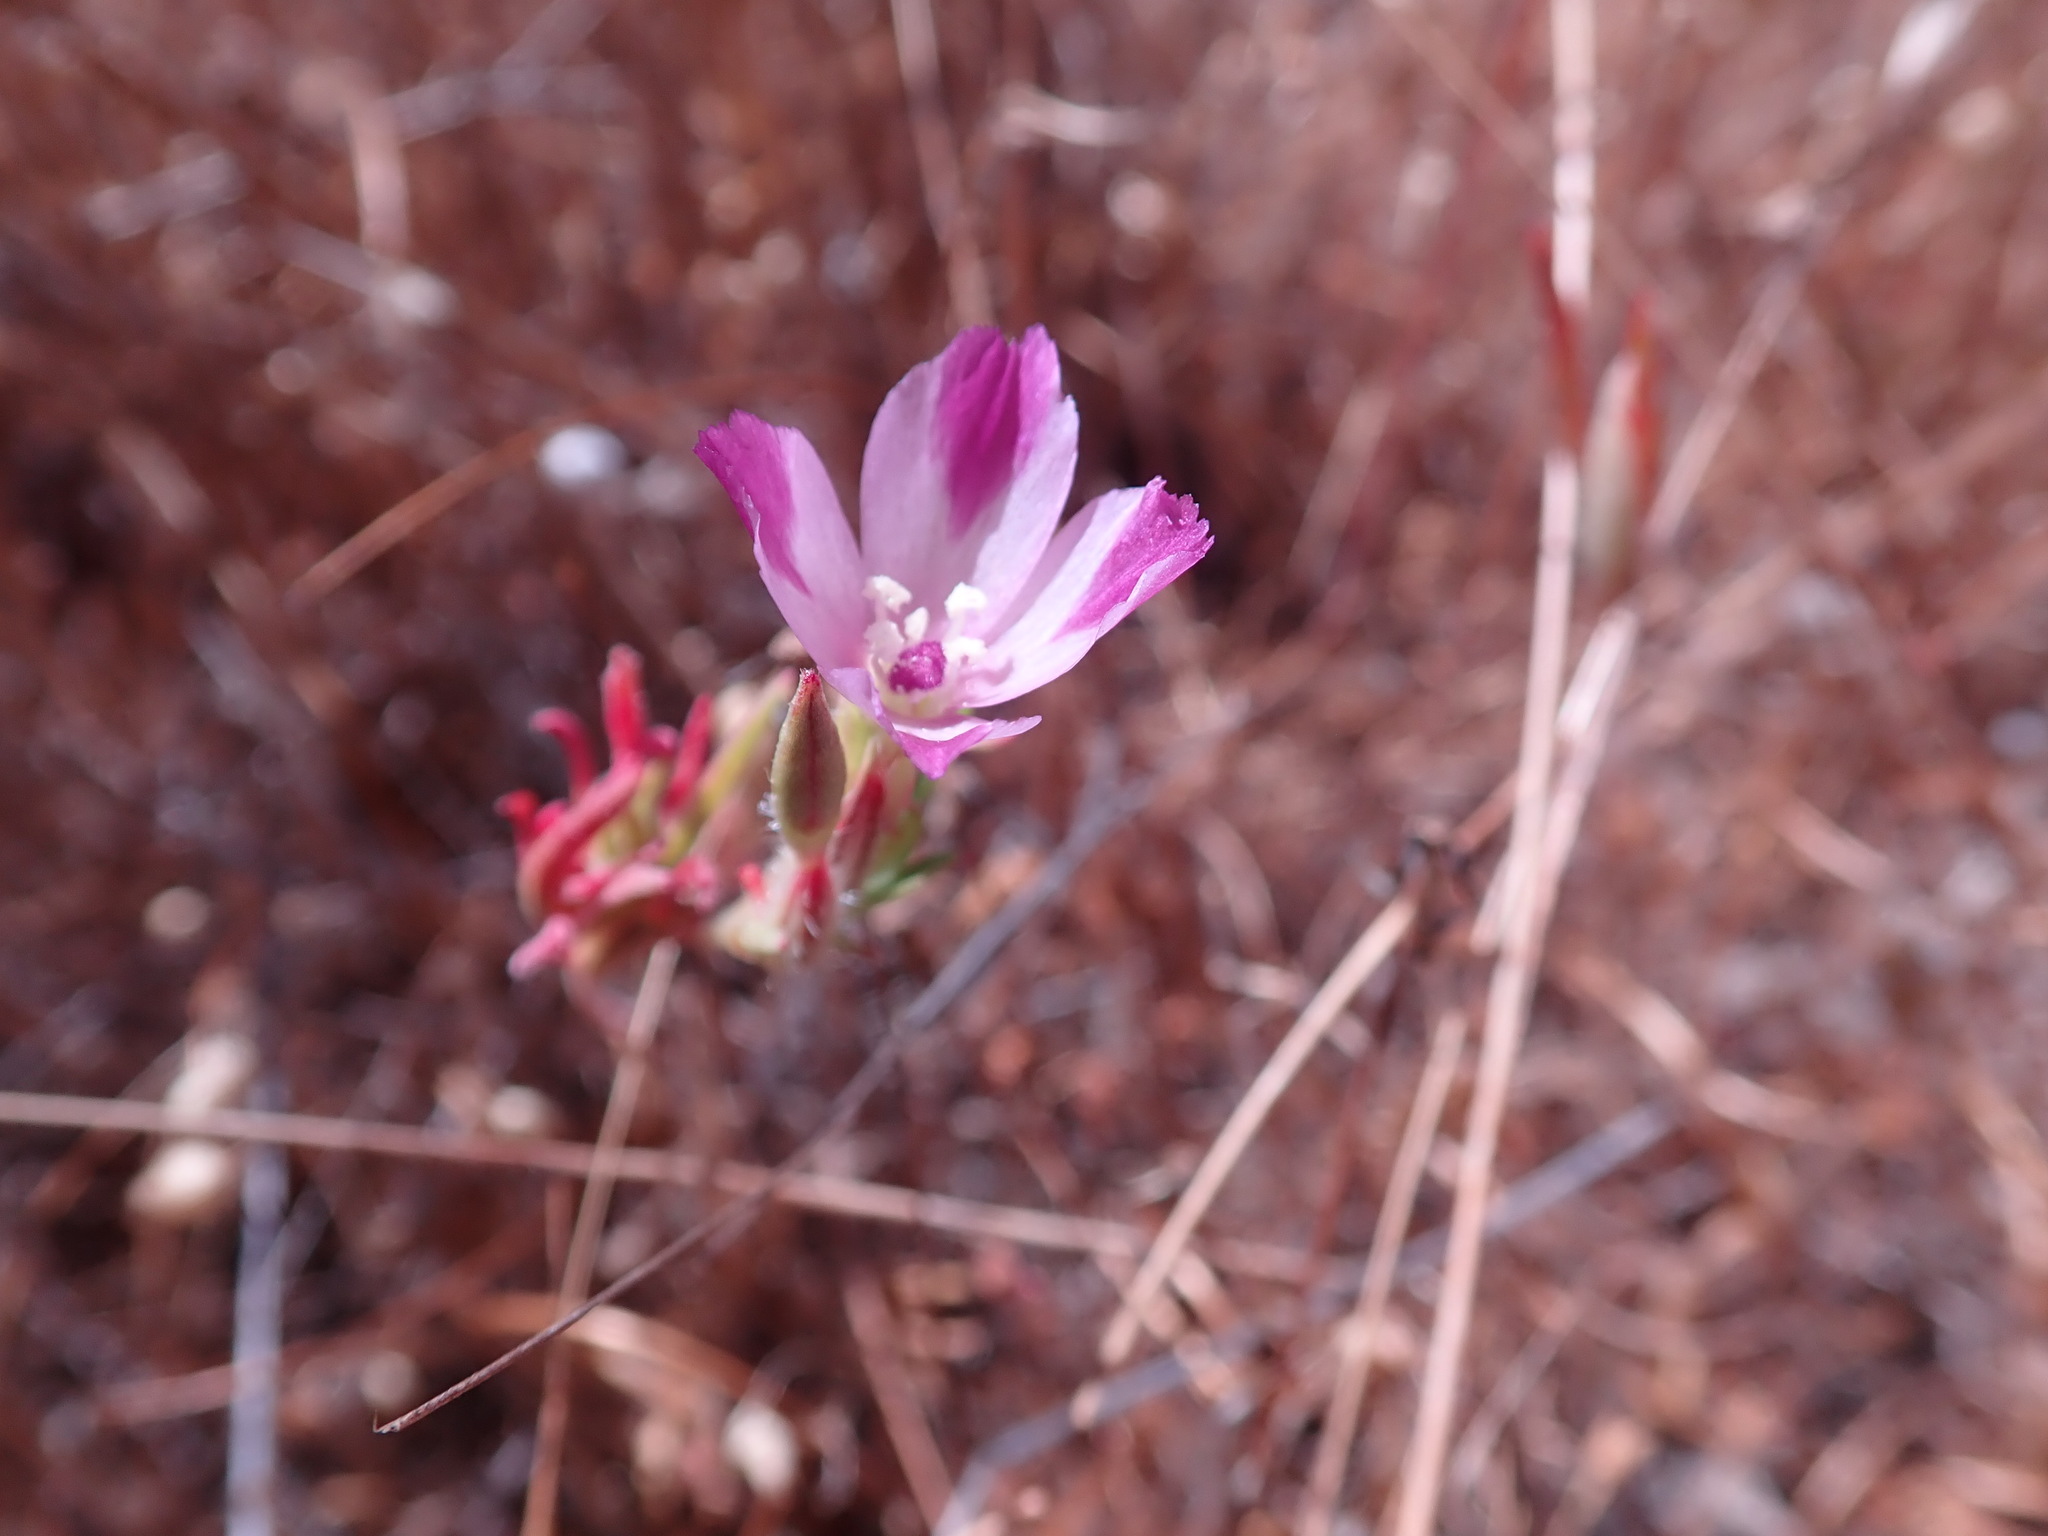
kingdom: Plantae
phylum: Tracheophyta
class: Magnoliopsida
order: Myrtales
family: Onagraceae
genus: Clarkia
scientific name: Clarkia purpurea
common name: Purple clarkia
